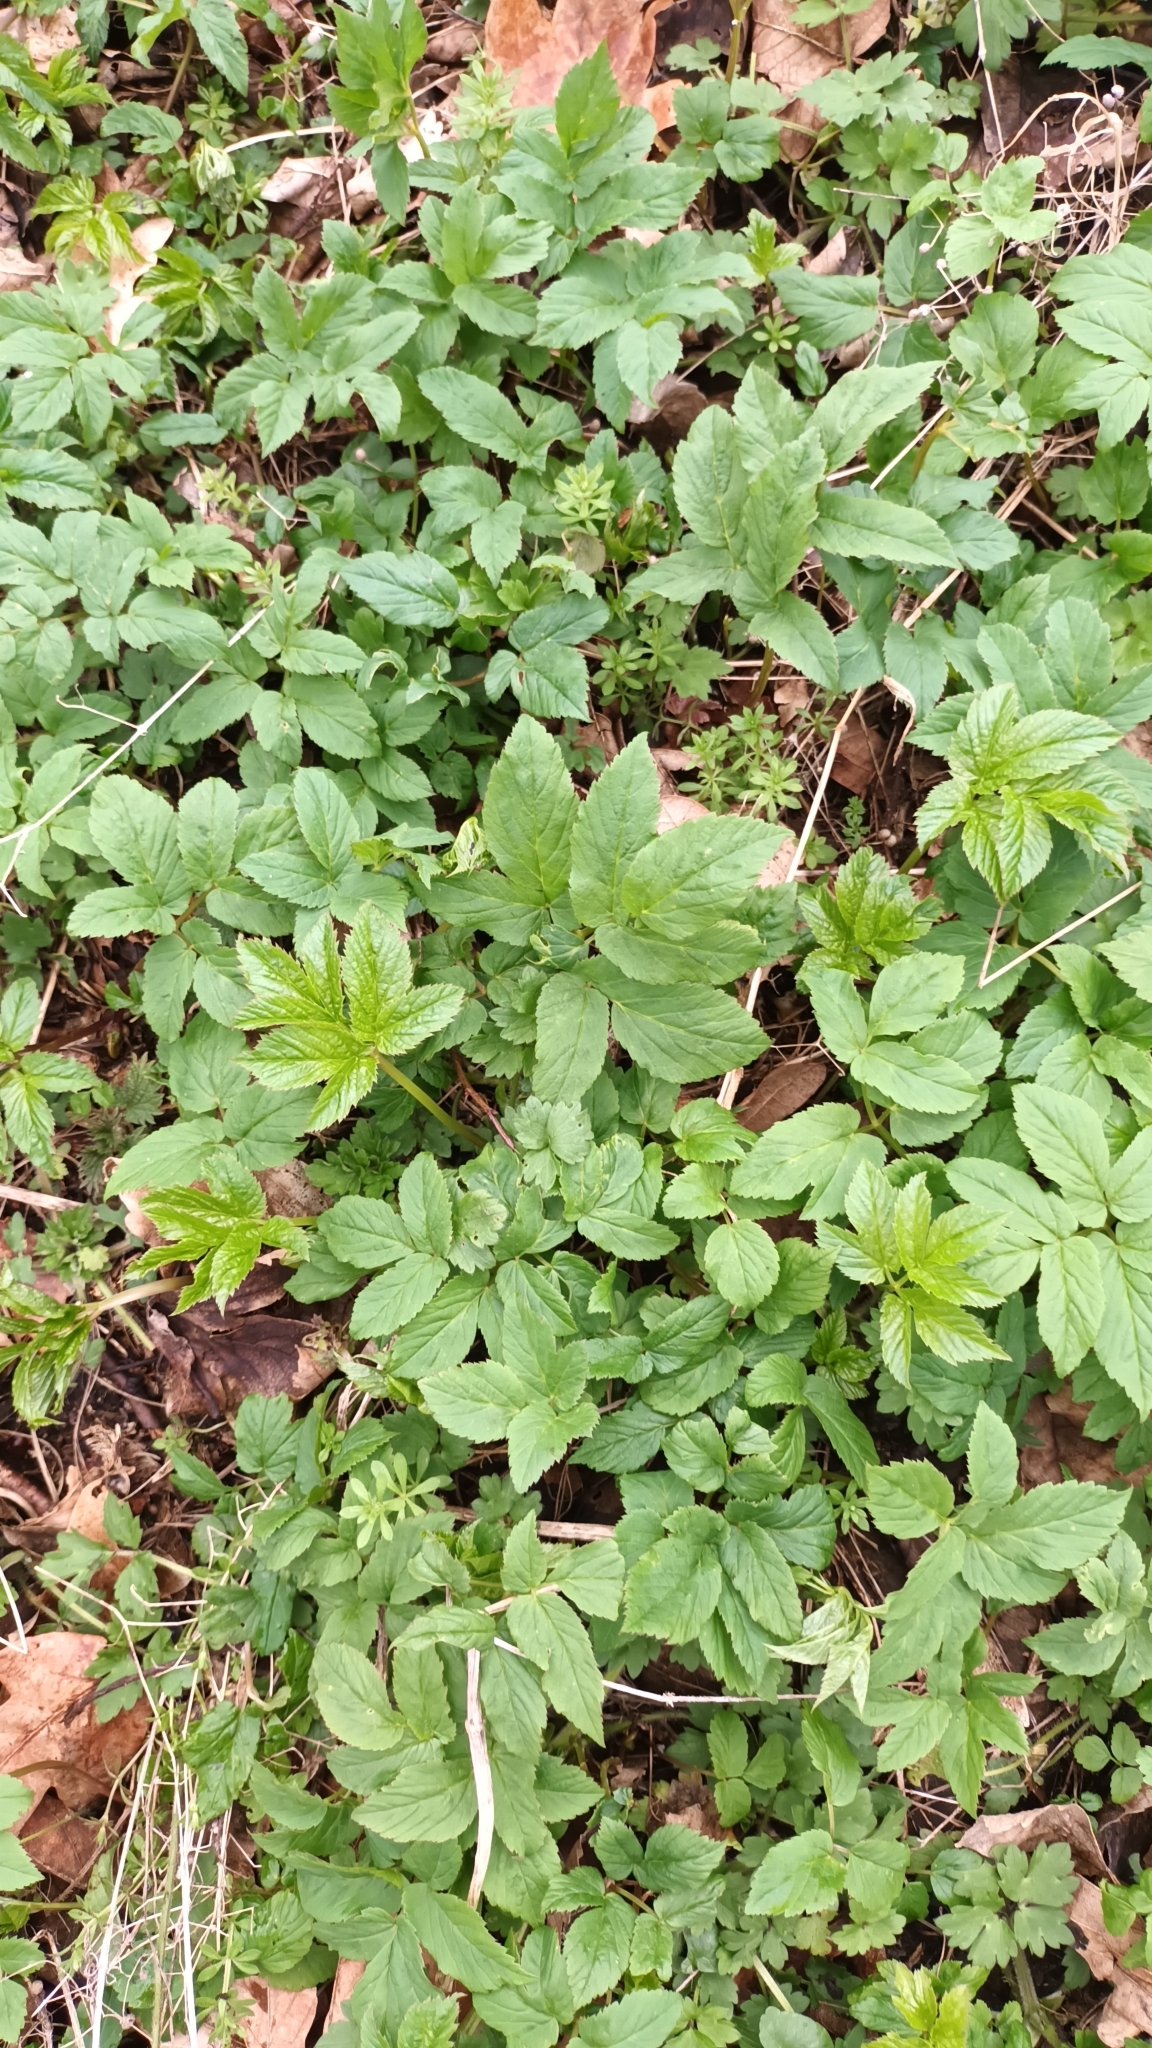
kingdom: Plantae
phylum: Tracheophyta
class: Magnoliopsida
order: Apiales
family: Apiaceae
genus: Aegopodium
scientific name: Aegopodium podagraria
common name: Ground-elder
